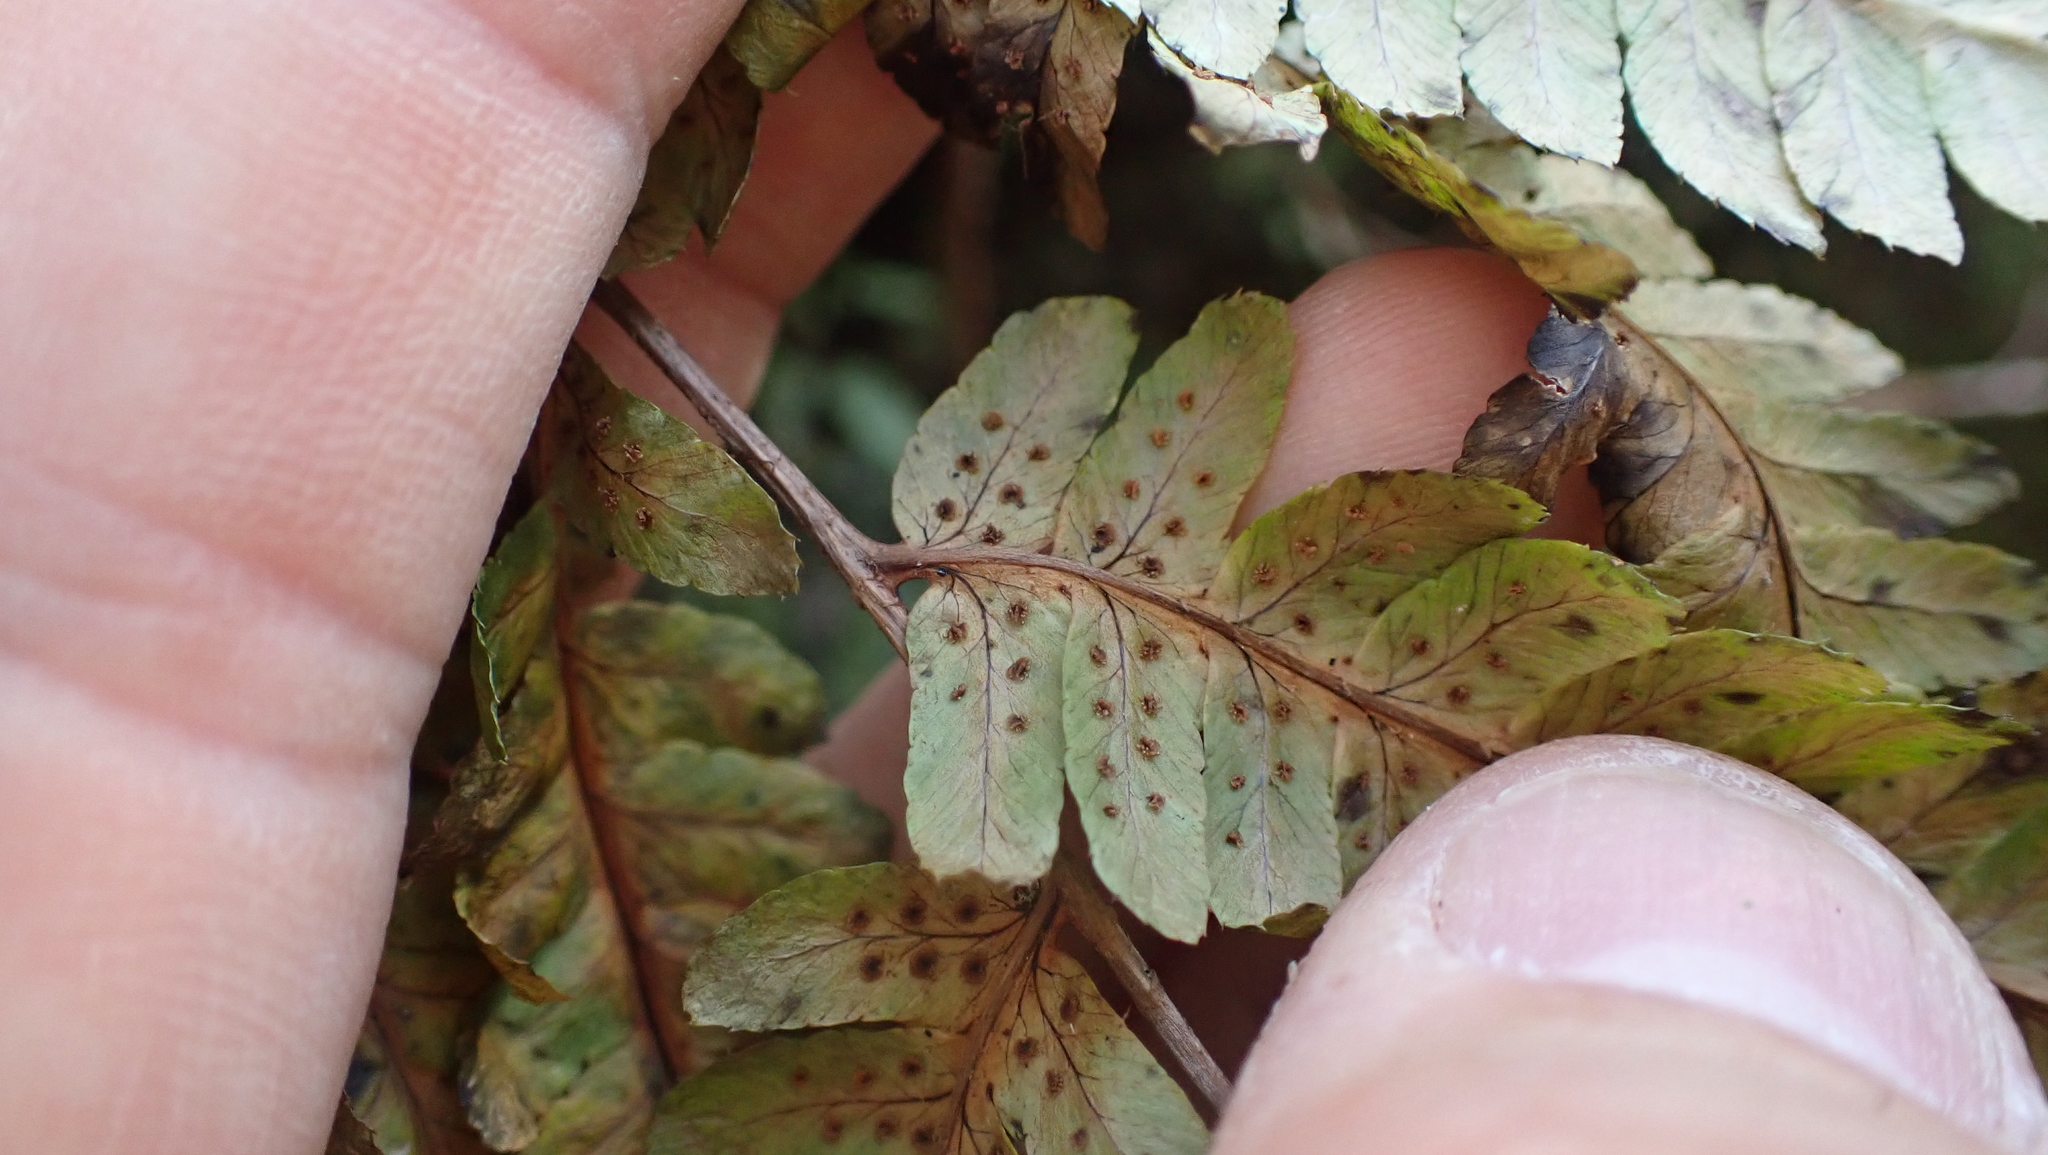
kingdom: Plantae
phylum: Tracheophyta
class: Polypodiopsida
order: Polypodiales
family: Dryopteridaceae
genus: Dryopteris
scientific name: Dryopteris goldieana
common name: Goldie's fern
